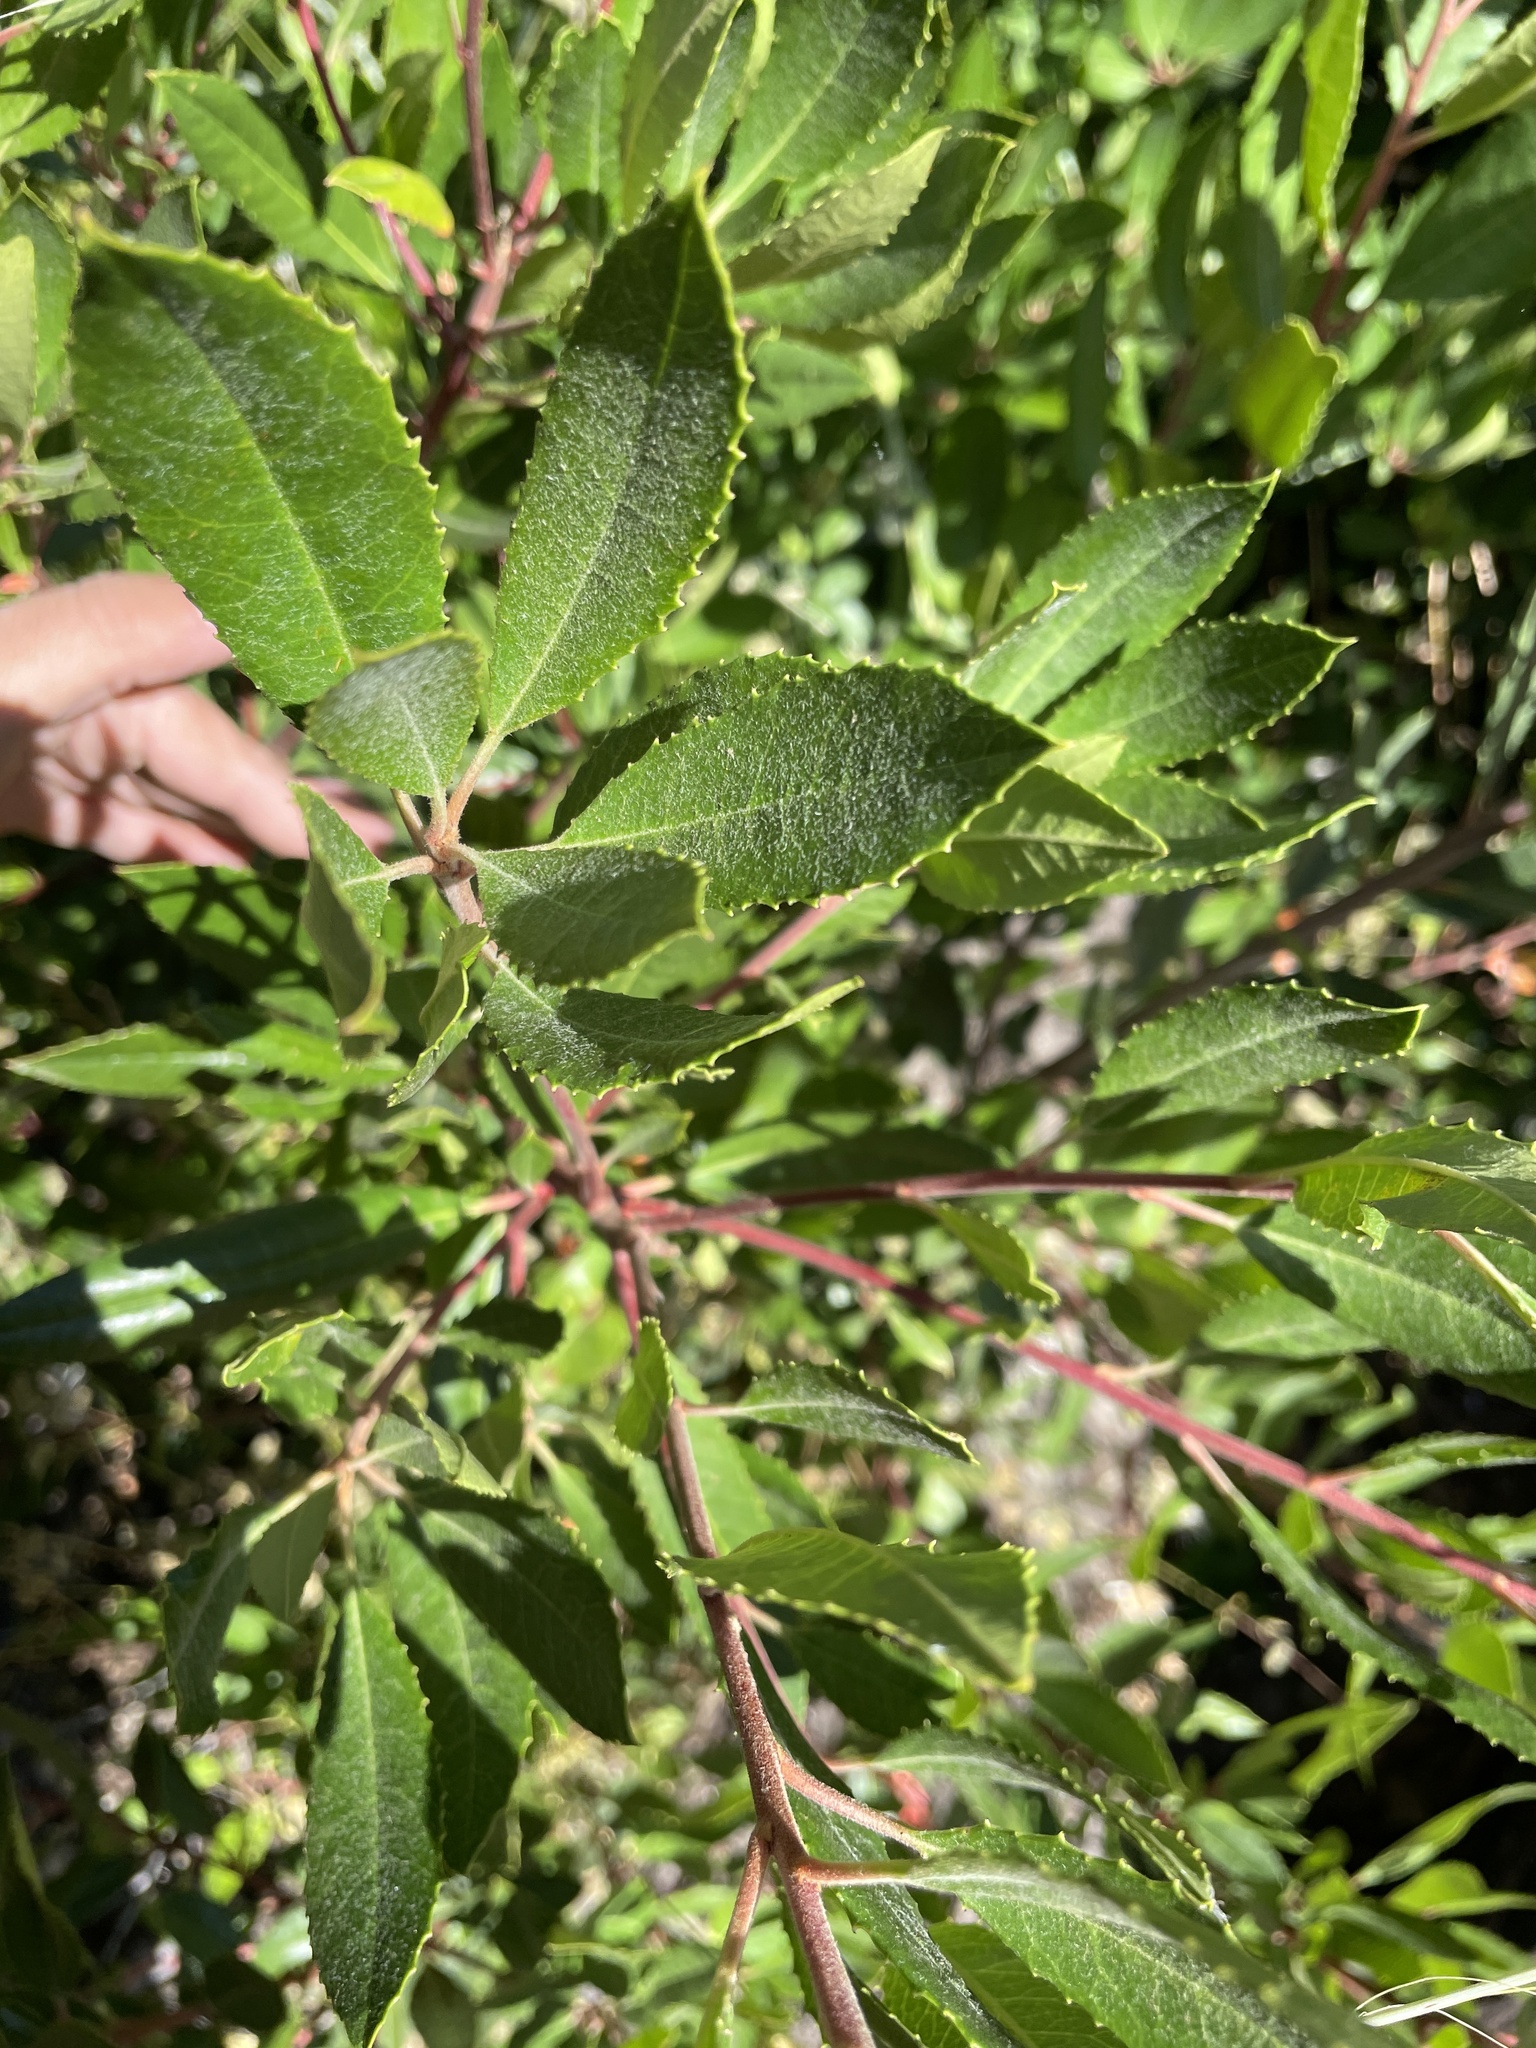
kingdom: Plantae
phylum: Tracheophyta
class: Magnoliopsida
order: Rosales
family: Rosaceae
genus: Heteromeles
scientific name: Heteromeles arbutifolia
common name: California-holly
